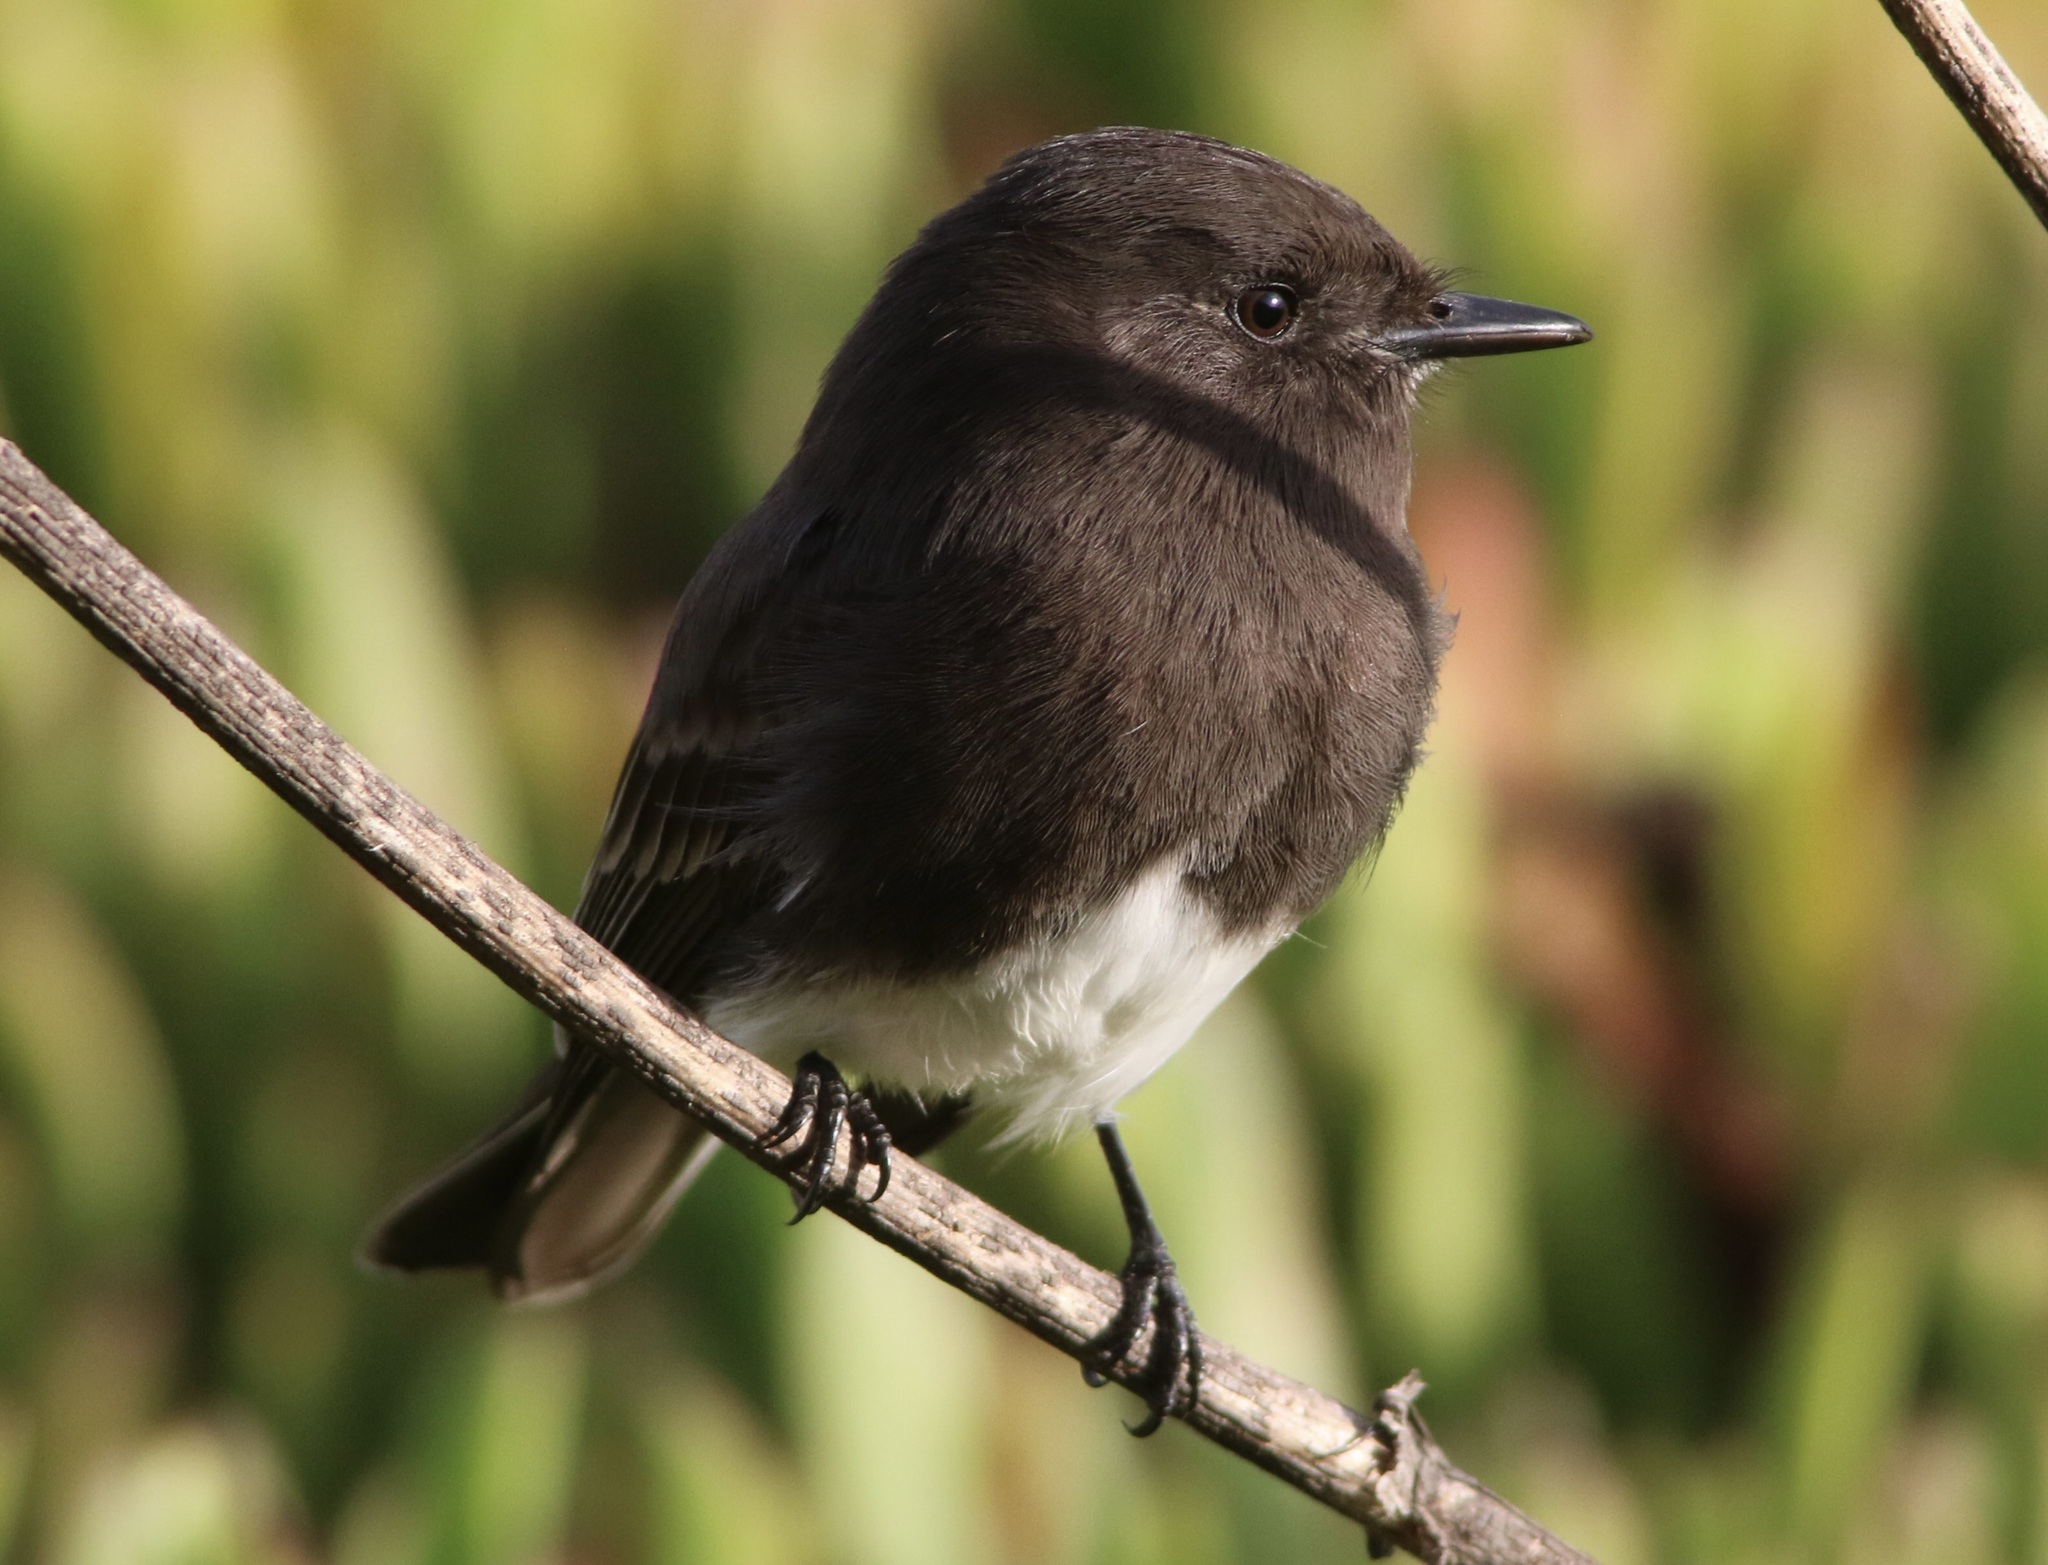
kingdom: Animalia
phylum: Chordata
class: Aves
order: Passeriformes
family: Tyrannidae
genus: Sayornis
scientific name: Sayornis nigricans
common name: Black phoebe
